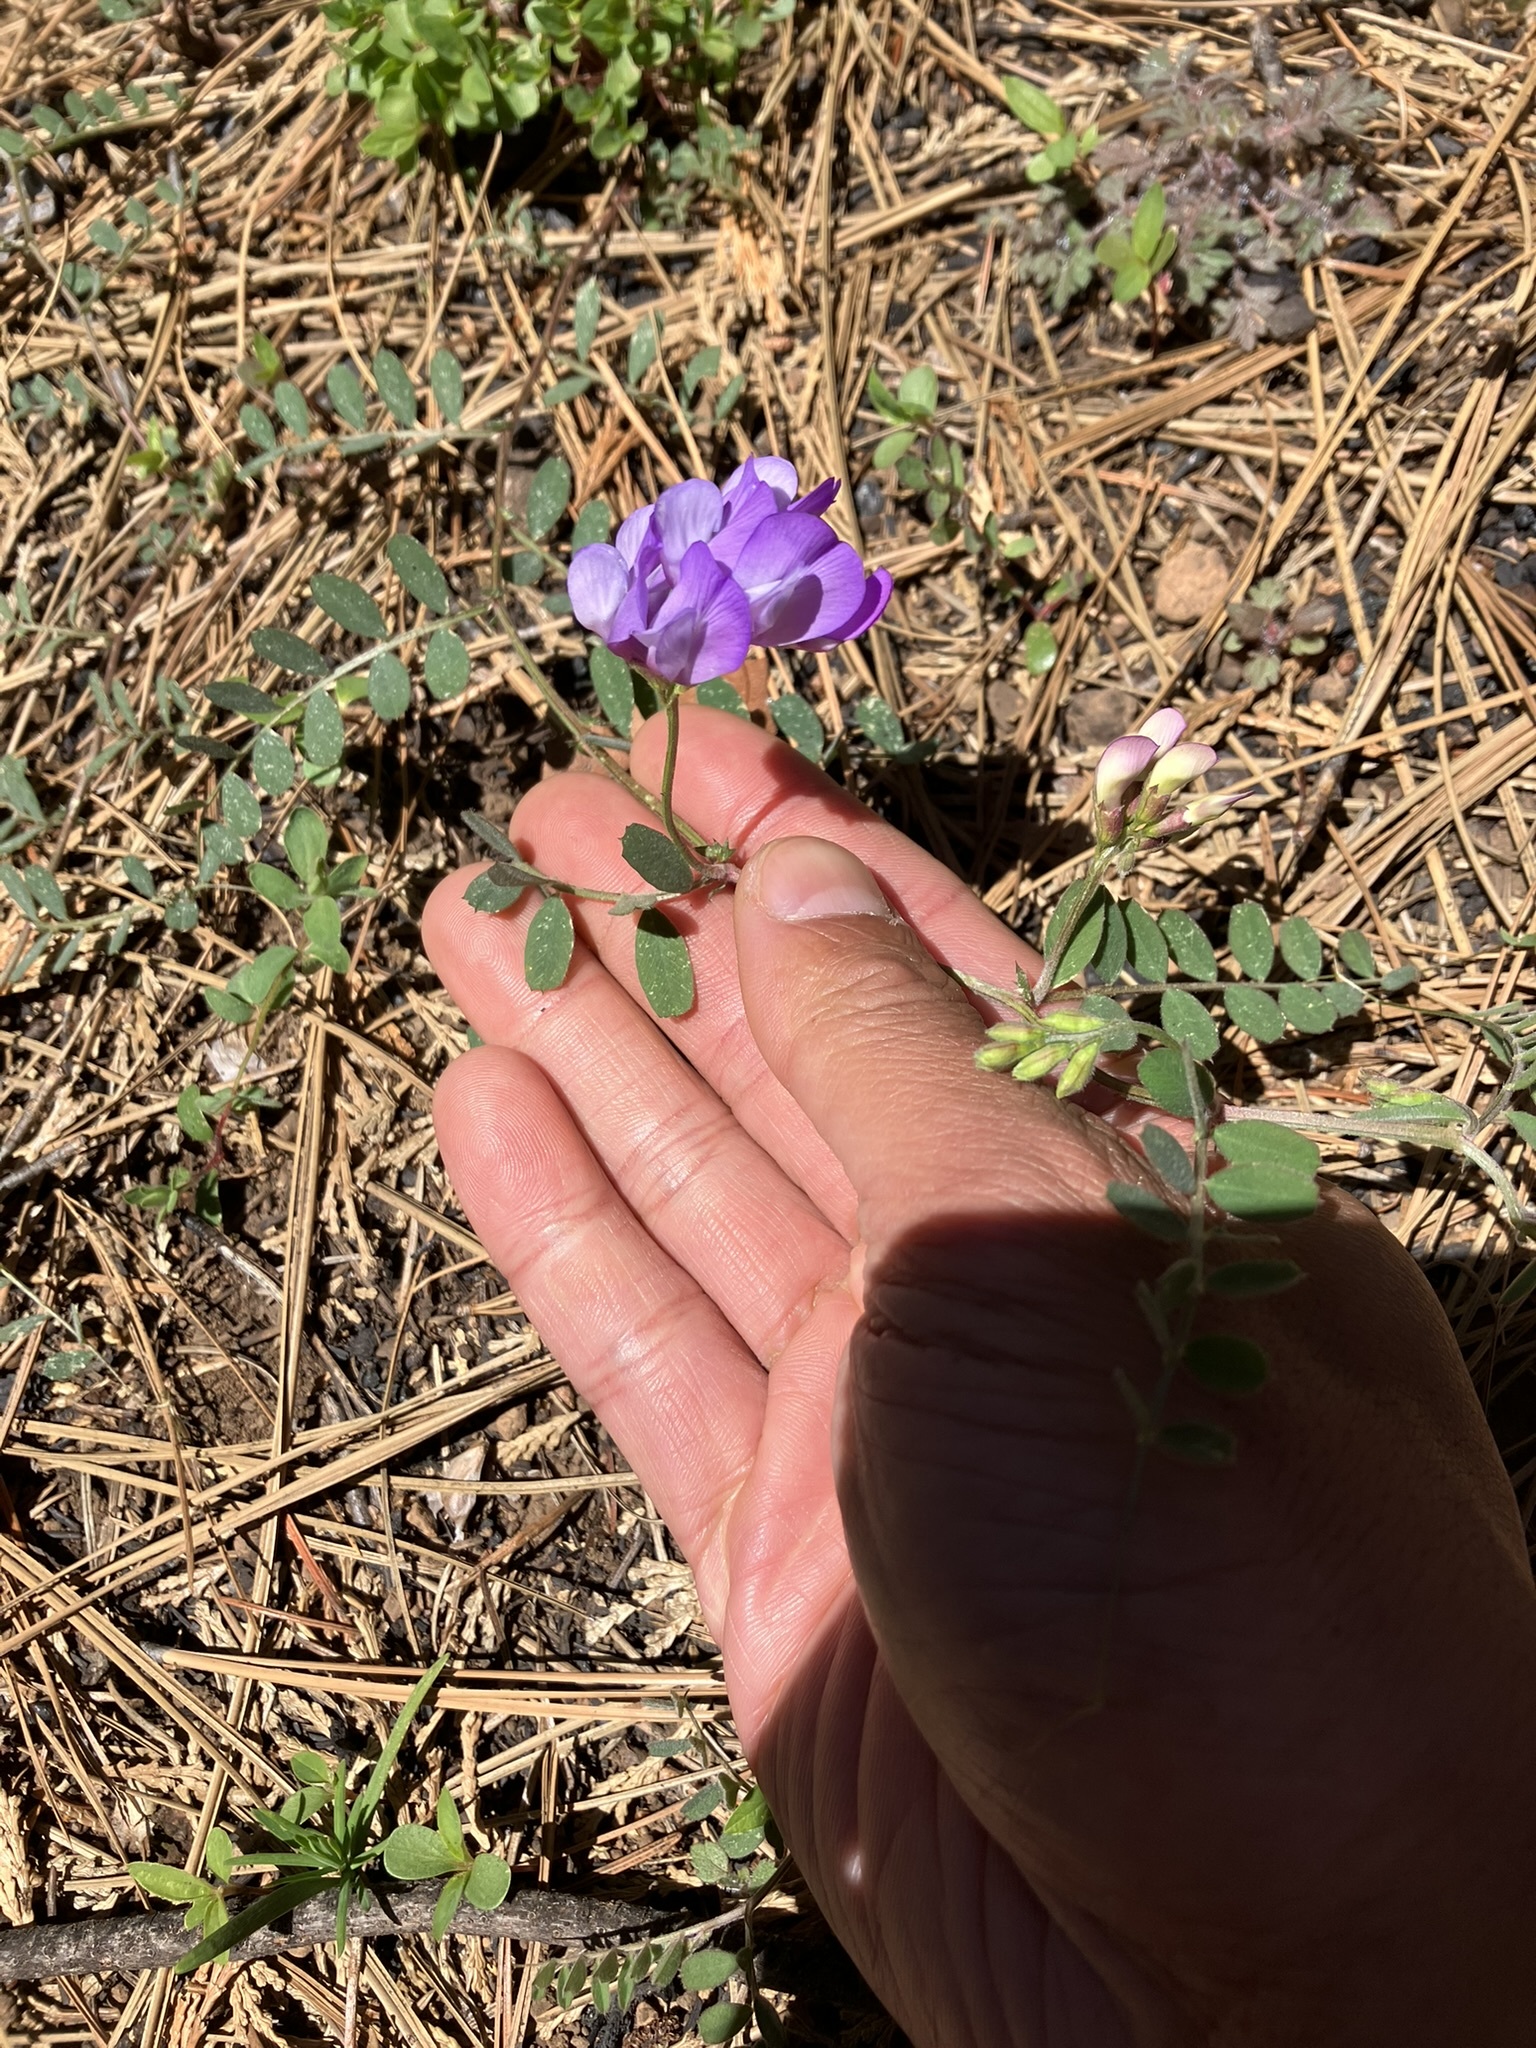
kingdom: Plantae
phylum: Tracheophyta
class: Magnoliopsida
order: Fabales
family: Fabaceae
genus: Vicia
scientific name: Vicia americana
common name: American vetch
